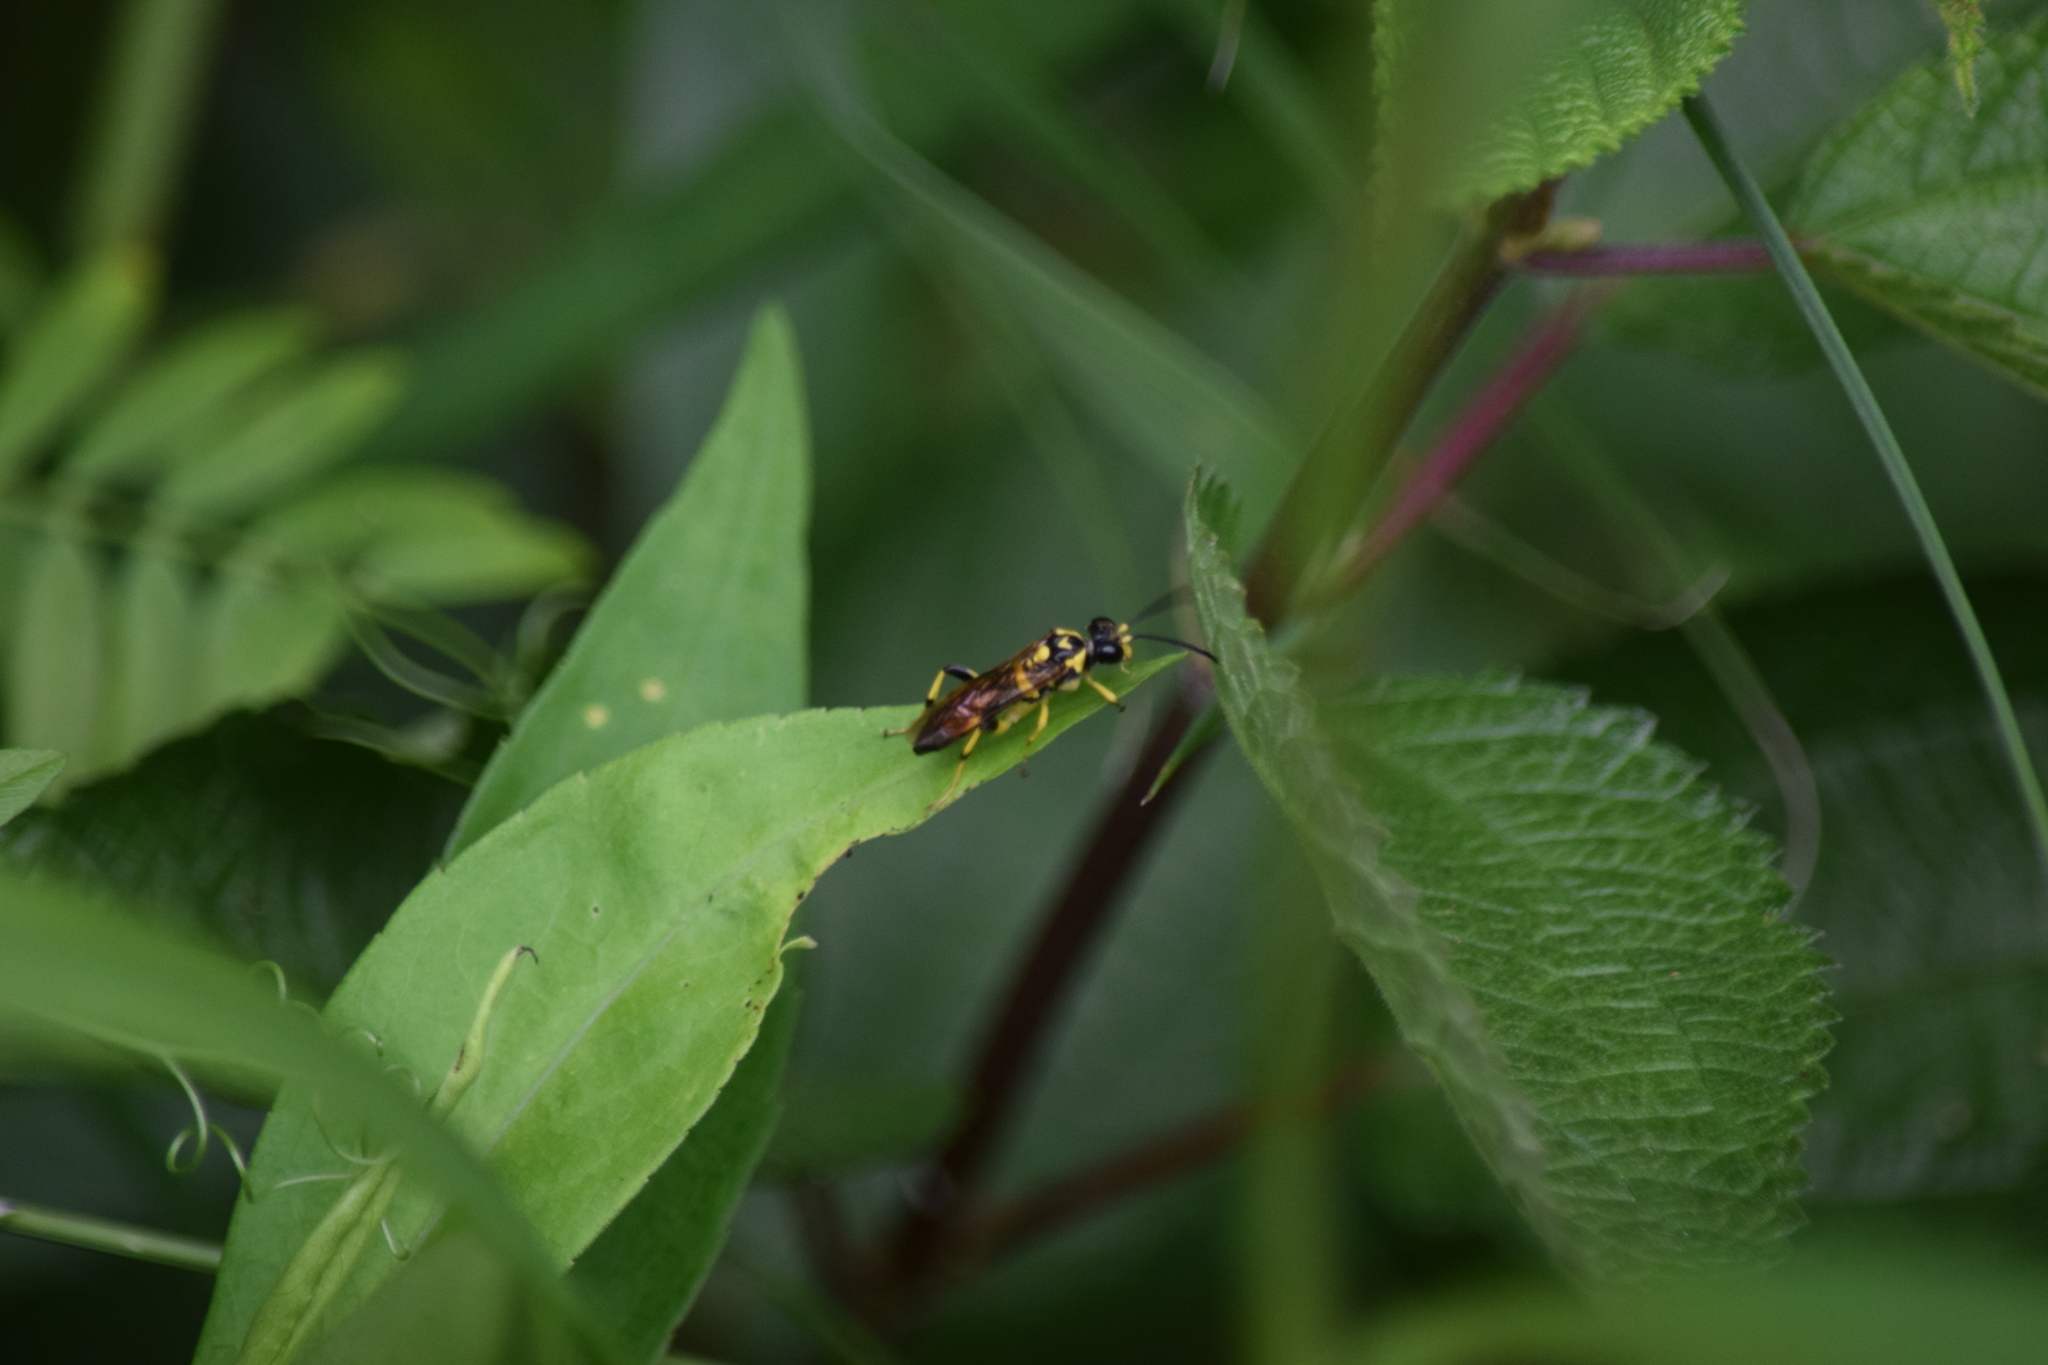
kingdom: Animalia
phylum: Arthropoda
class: Insecta
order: Hymenoptera
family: Tenthredinidae
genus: Macrophya
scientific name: Macrophya formosa
